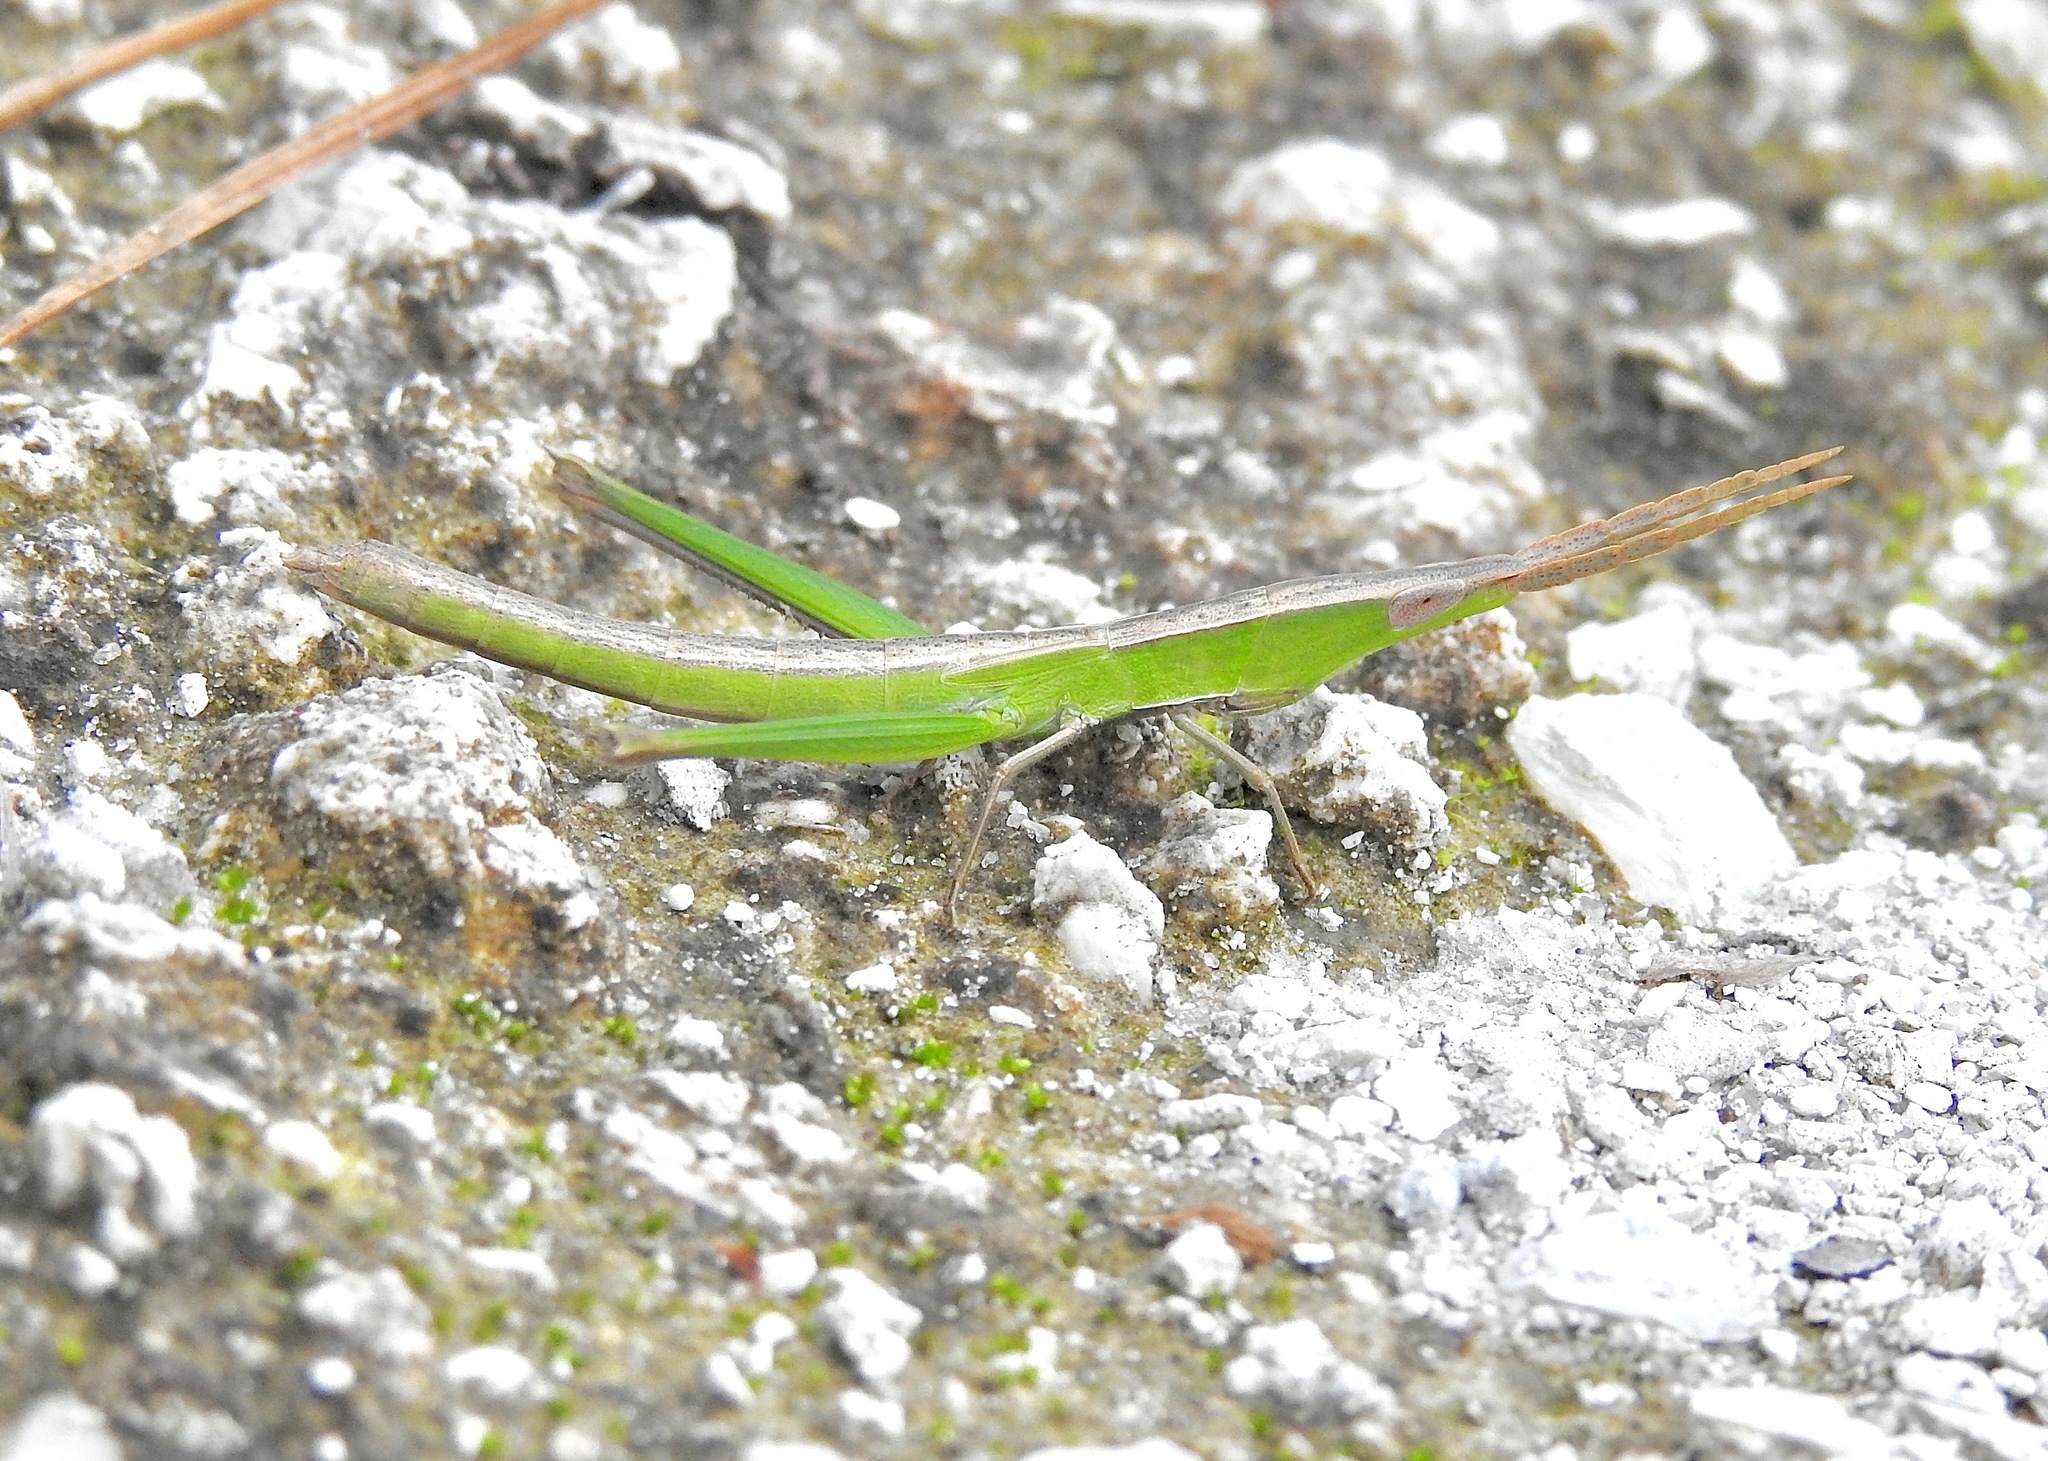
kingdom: Animalia
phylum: Arthropoda
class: Insecta
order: Orthoptera
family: Acrididae
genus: Achurum
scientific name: Achurum carinatum
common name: Long-headed toothpick grasshopper
